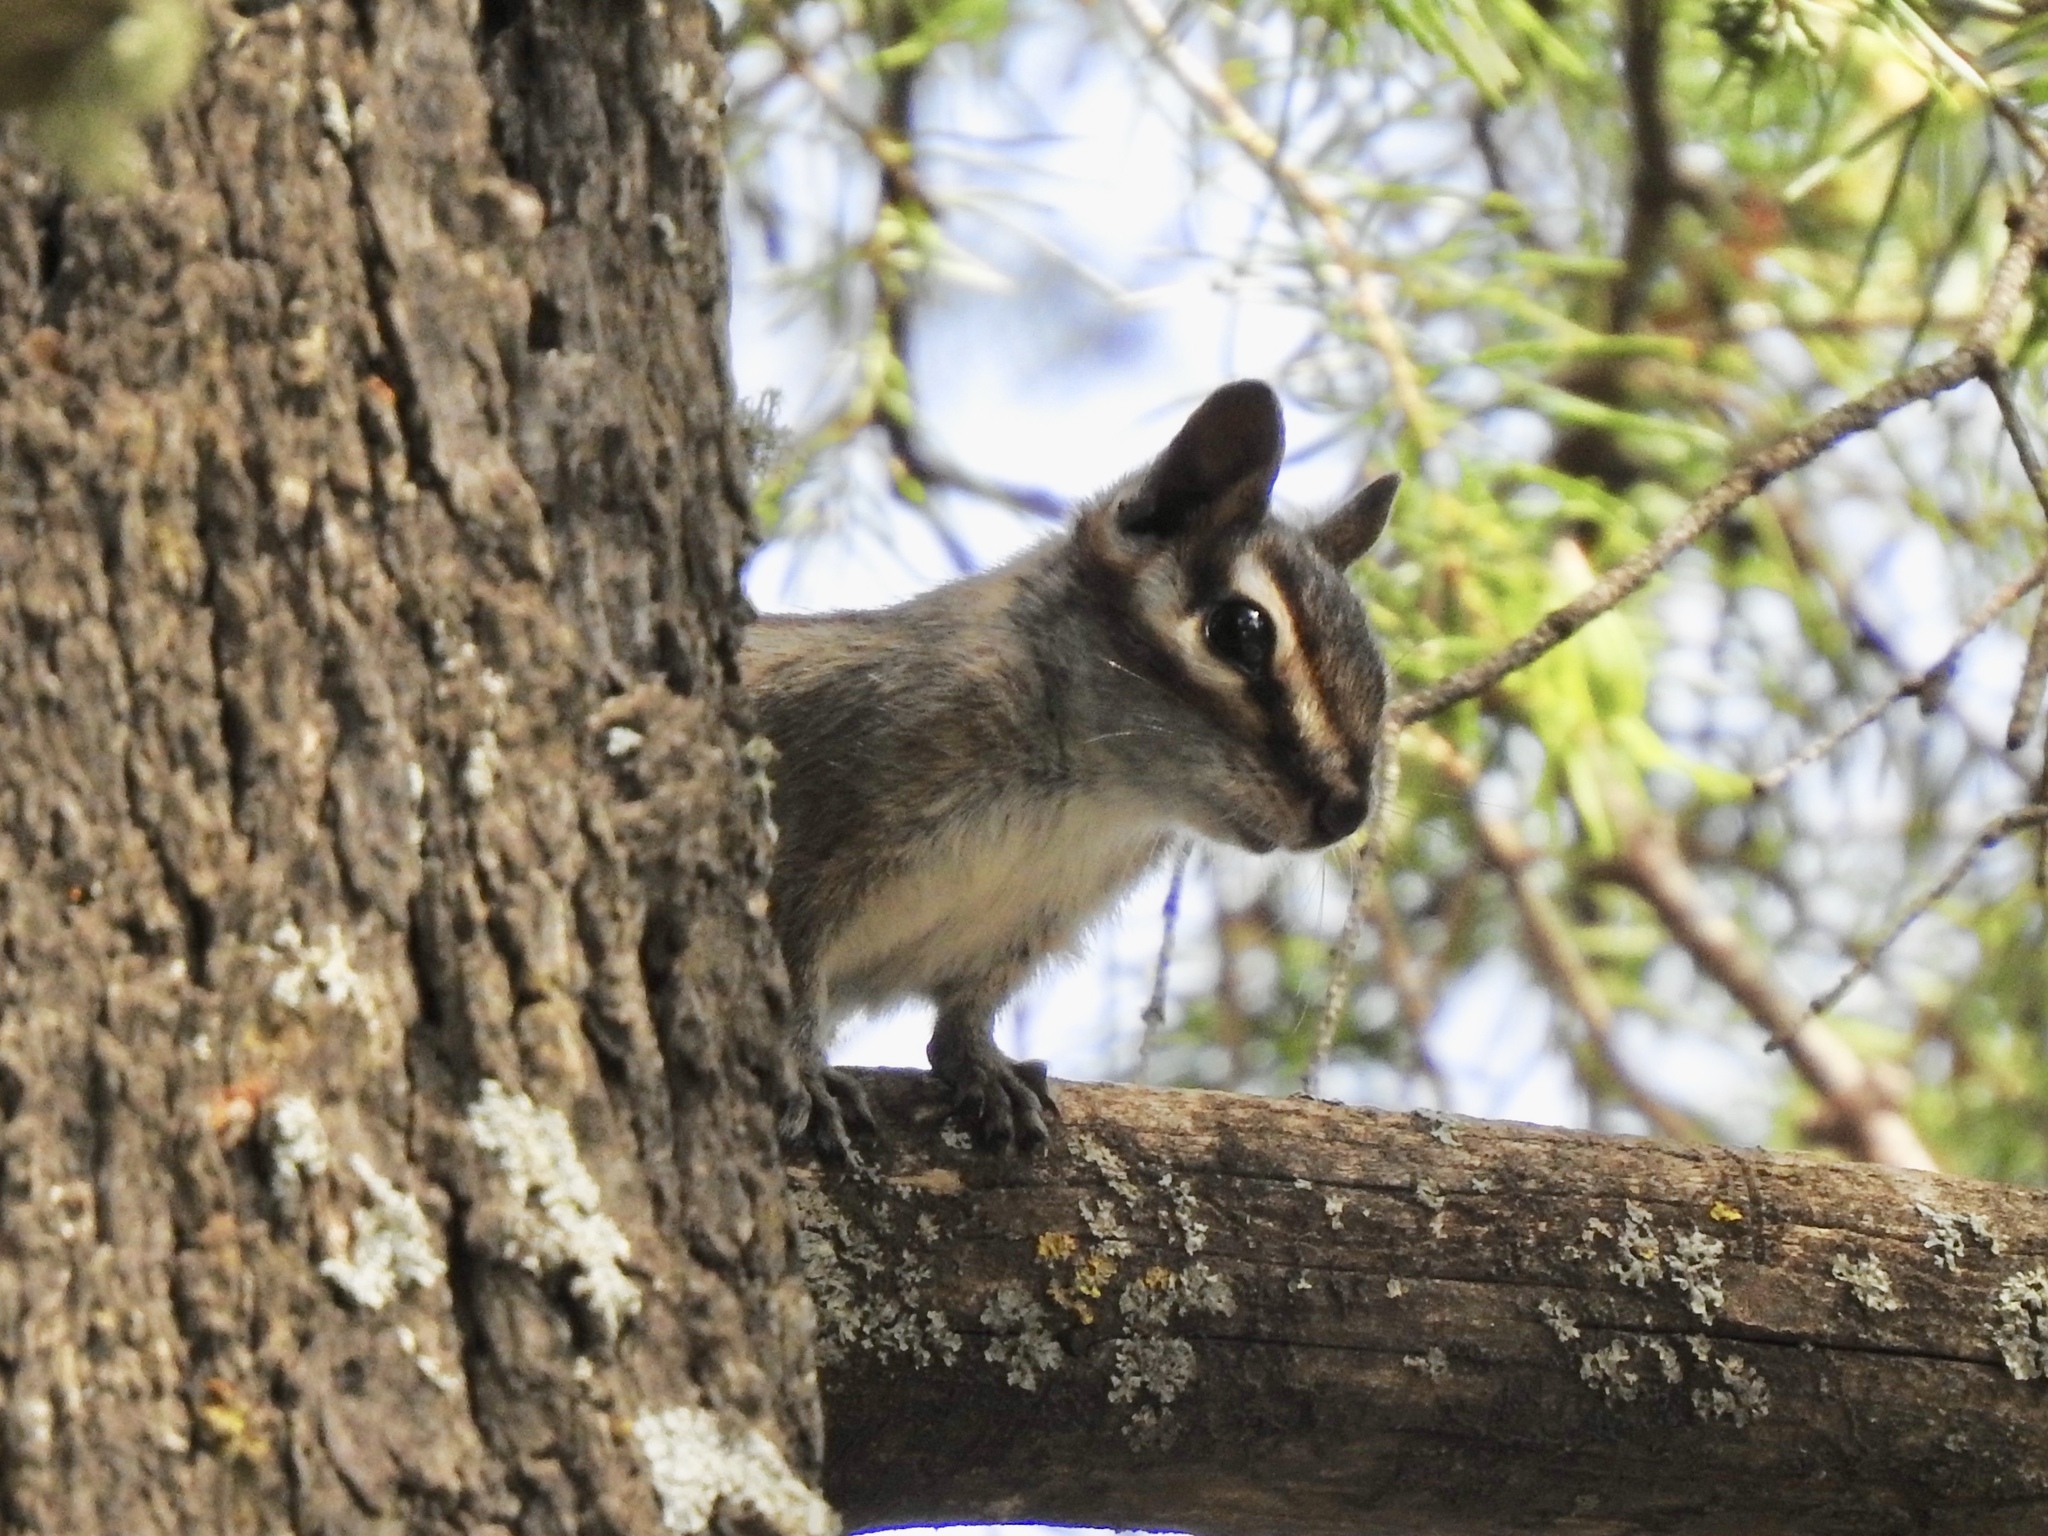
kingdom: Animalia
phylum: Chordata
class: Mammalia
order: Rodentia
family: Sciuridae
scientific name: Sciuridae
